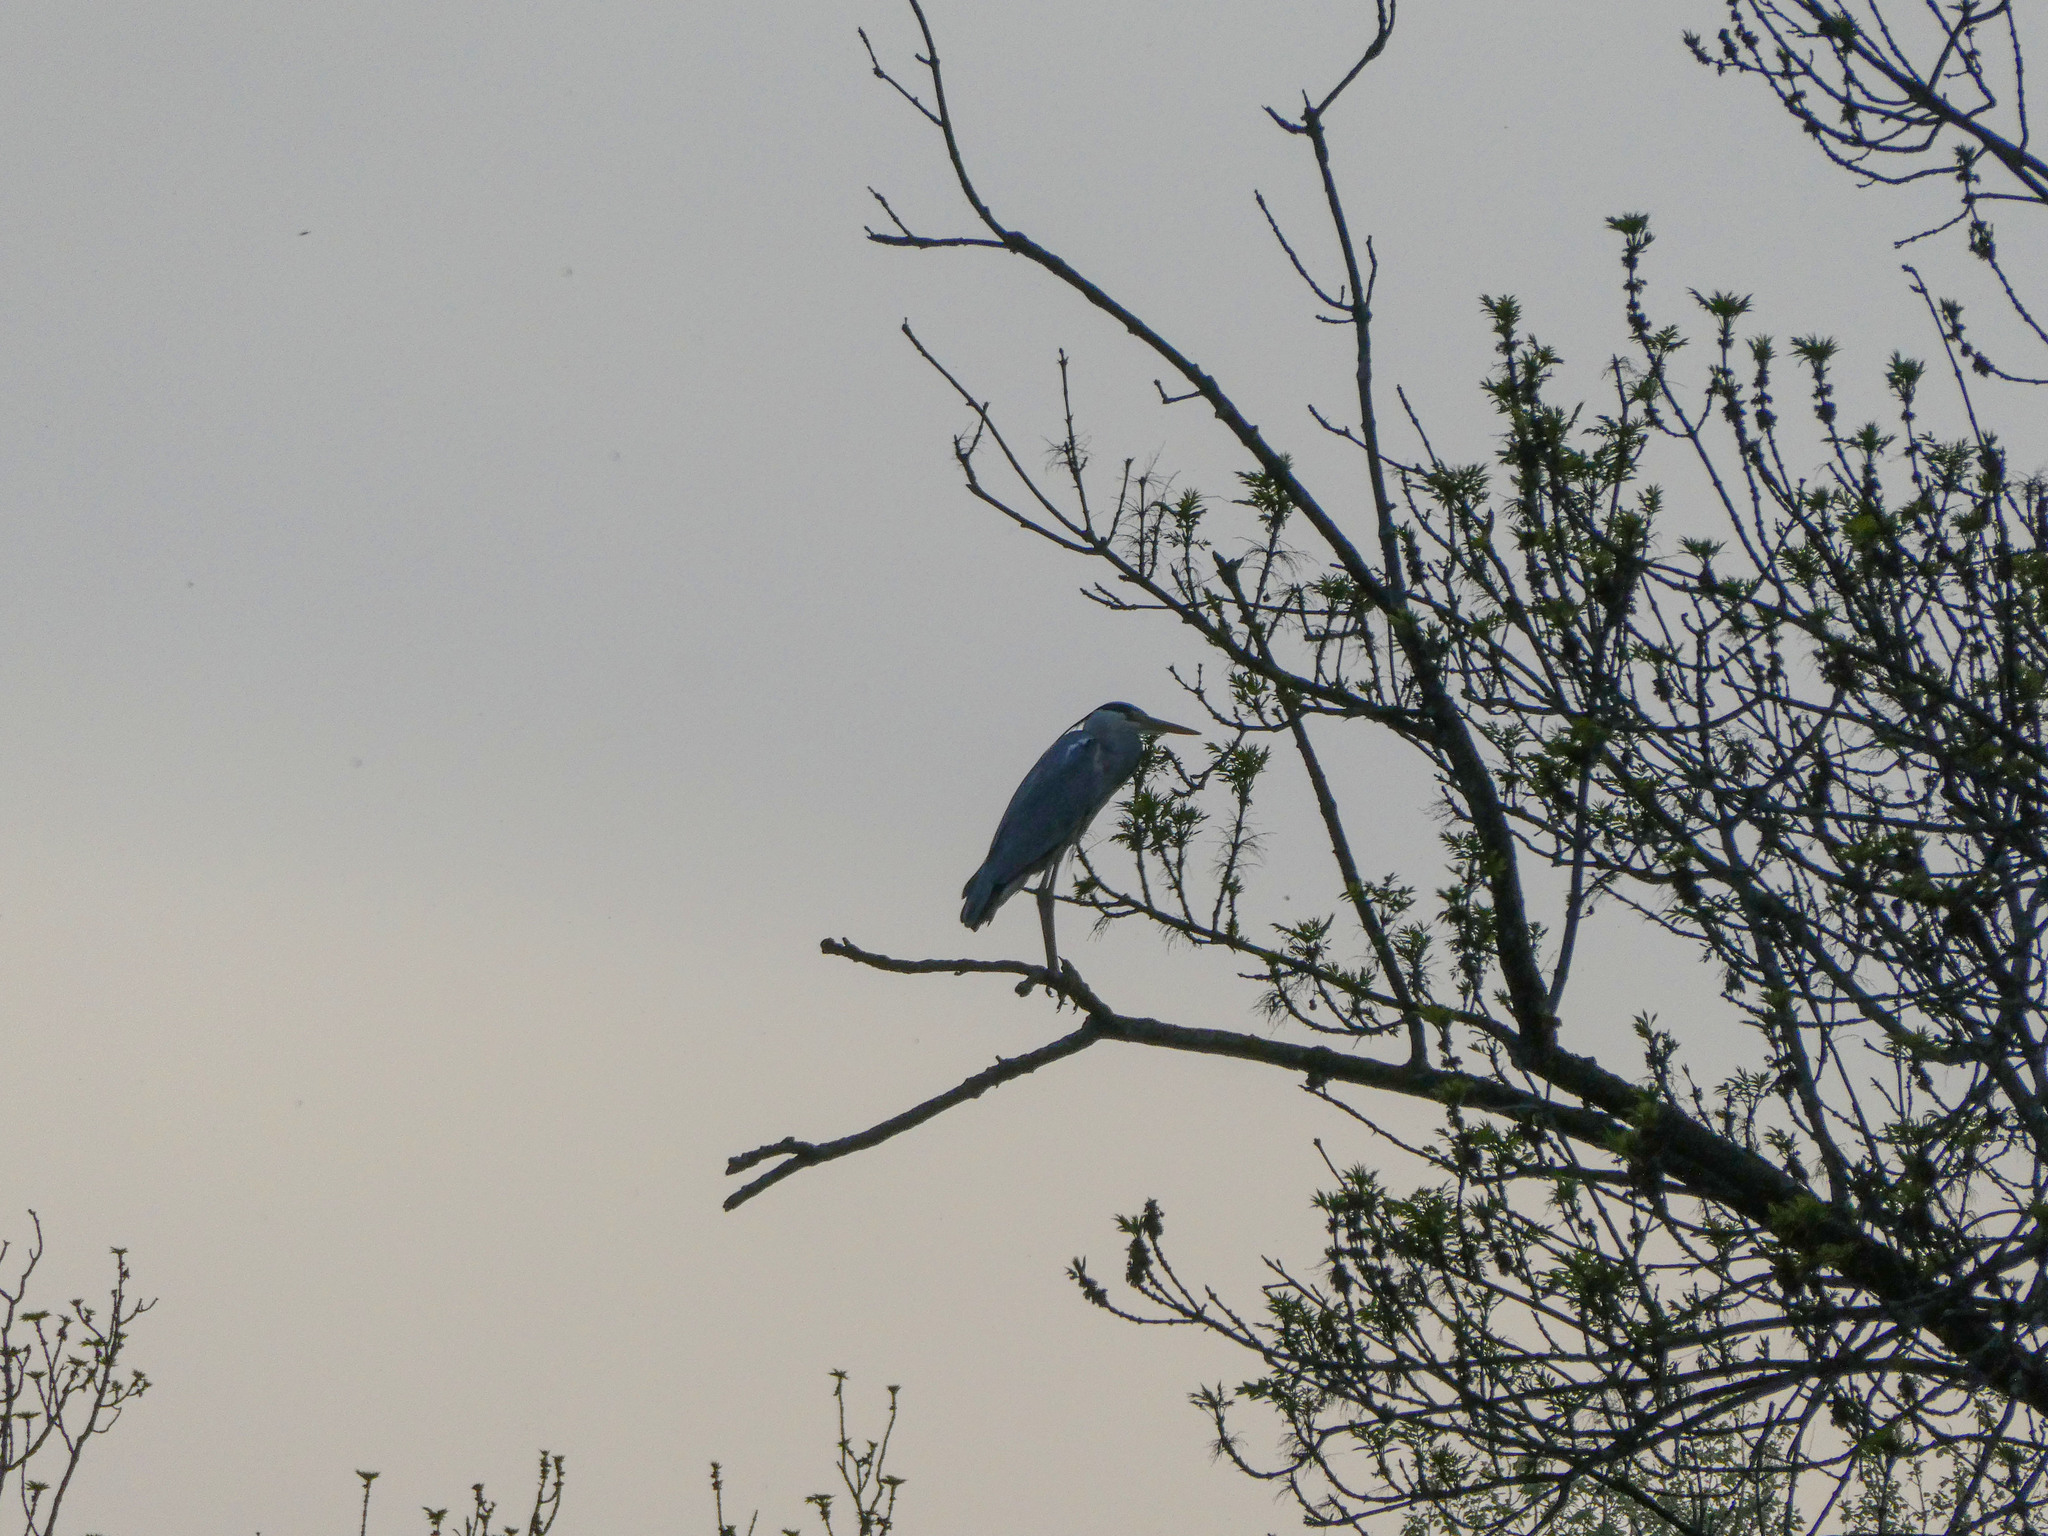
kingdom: Animalia
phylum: Chordata
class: Aves
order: Pelecaniformes
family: Ardeidae
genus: Ardea
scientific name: Ardea cinerea
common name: Grey heron
